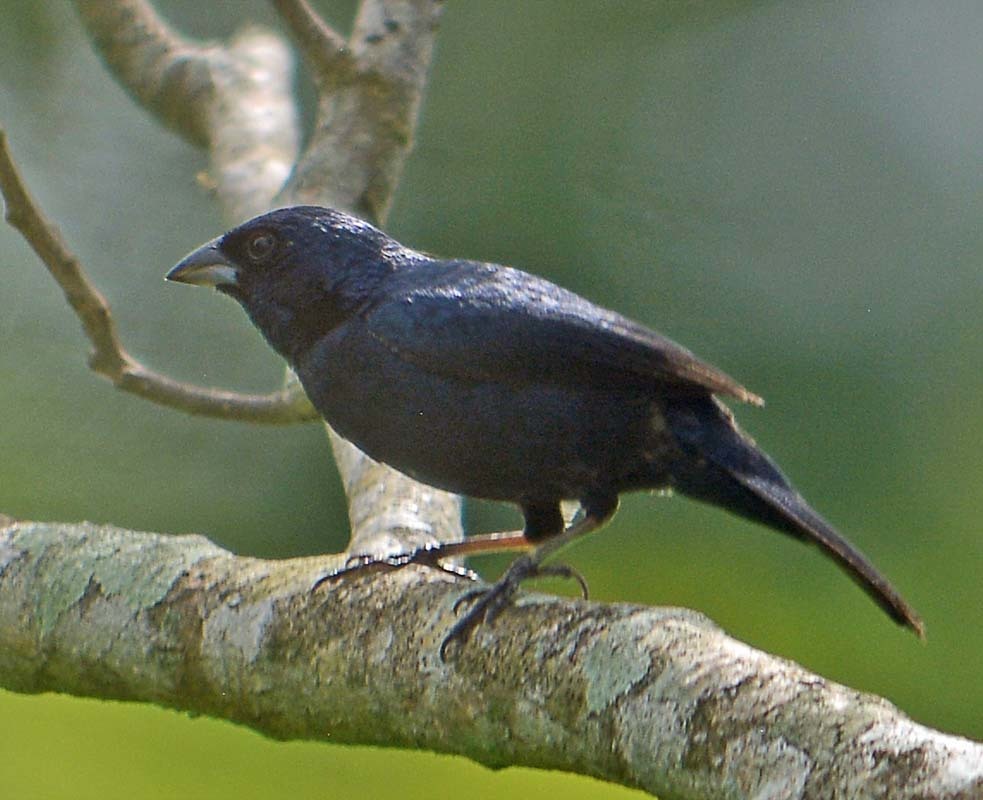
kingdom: Animalia
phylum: Chordata
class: Aves
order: Passeriformes
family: Thraupidae
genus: Volatinia
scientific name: Volatinia jacarina
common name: Blue-black grassquit
